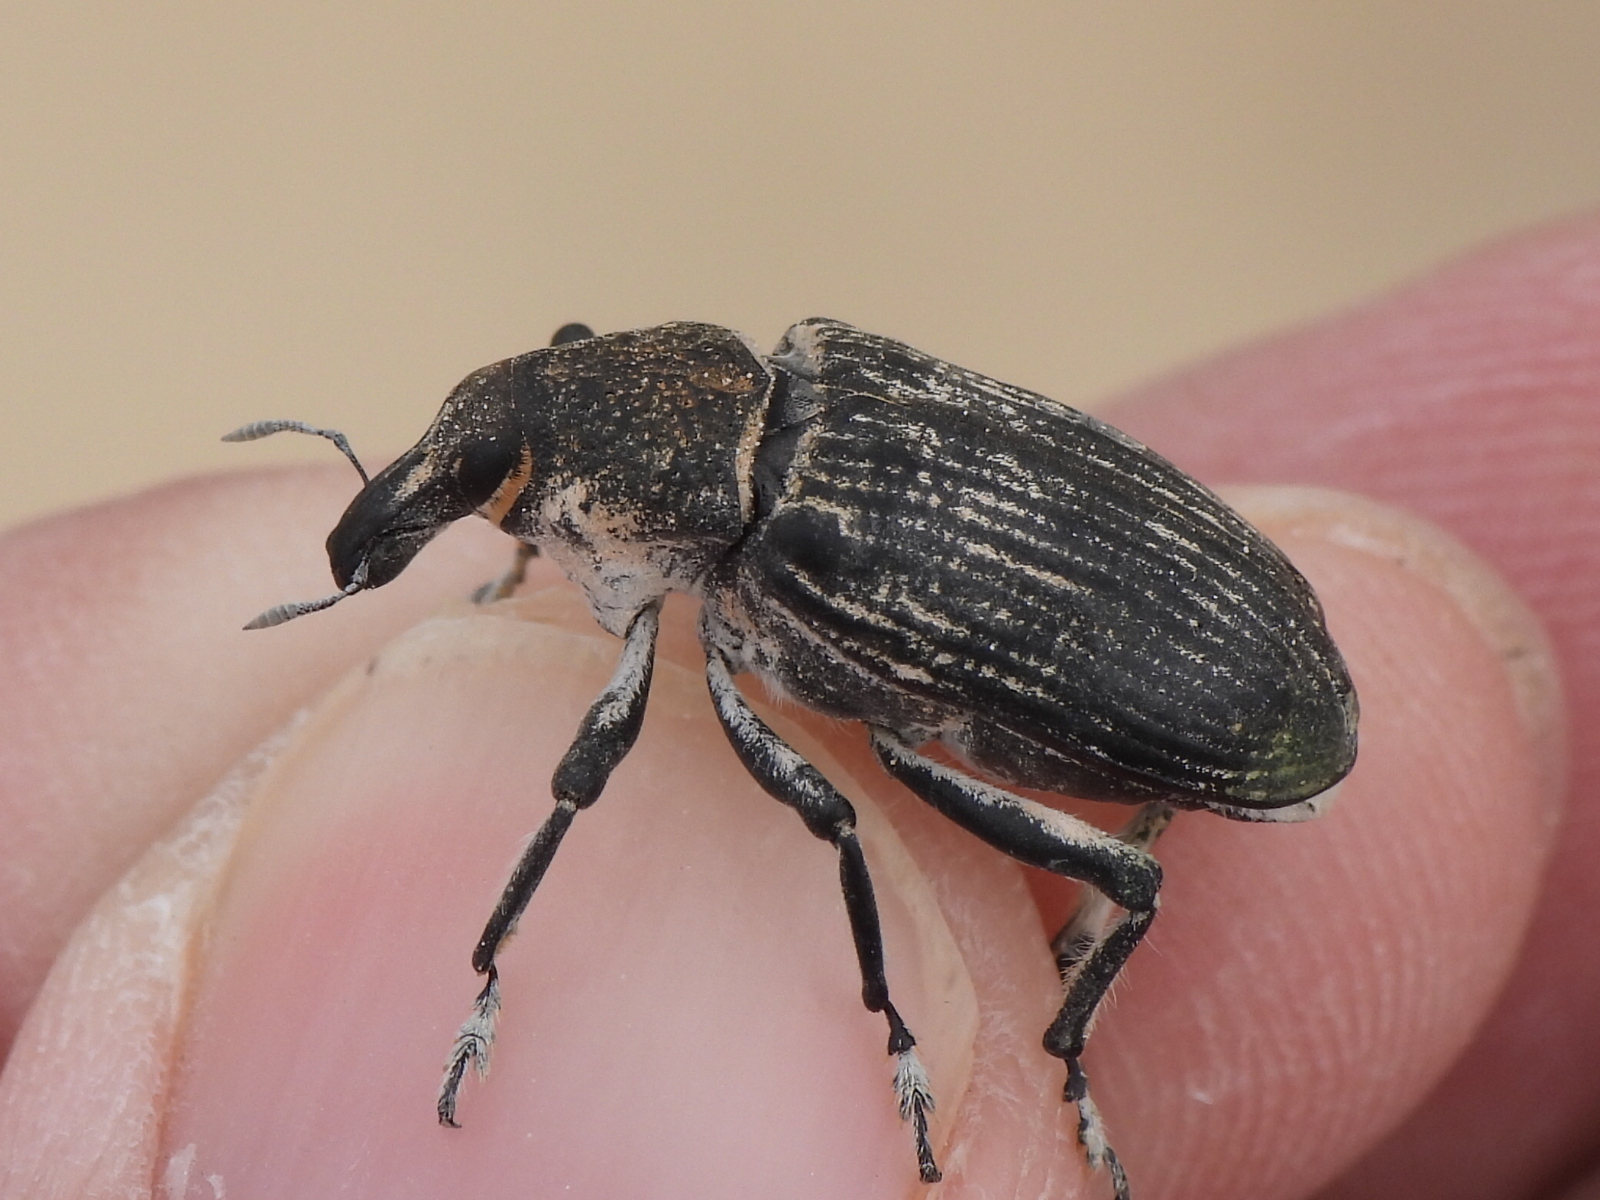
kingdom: Animalia
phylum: Arthropoda
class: Insecta
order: Coleoptera
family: Curculionidae
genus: Ammocleonus
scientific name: Ammocleonus hieroglyphicus
